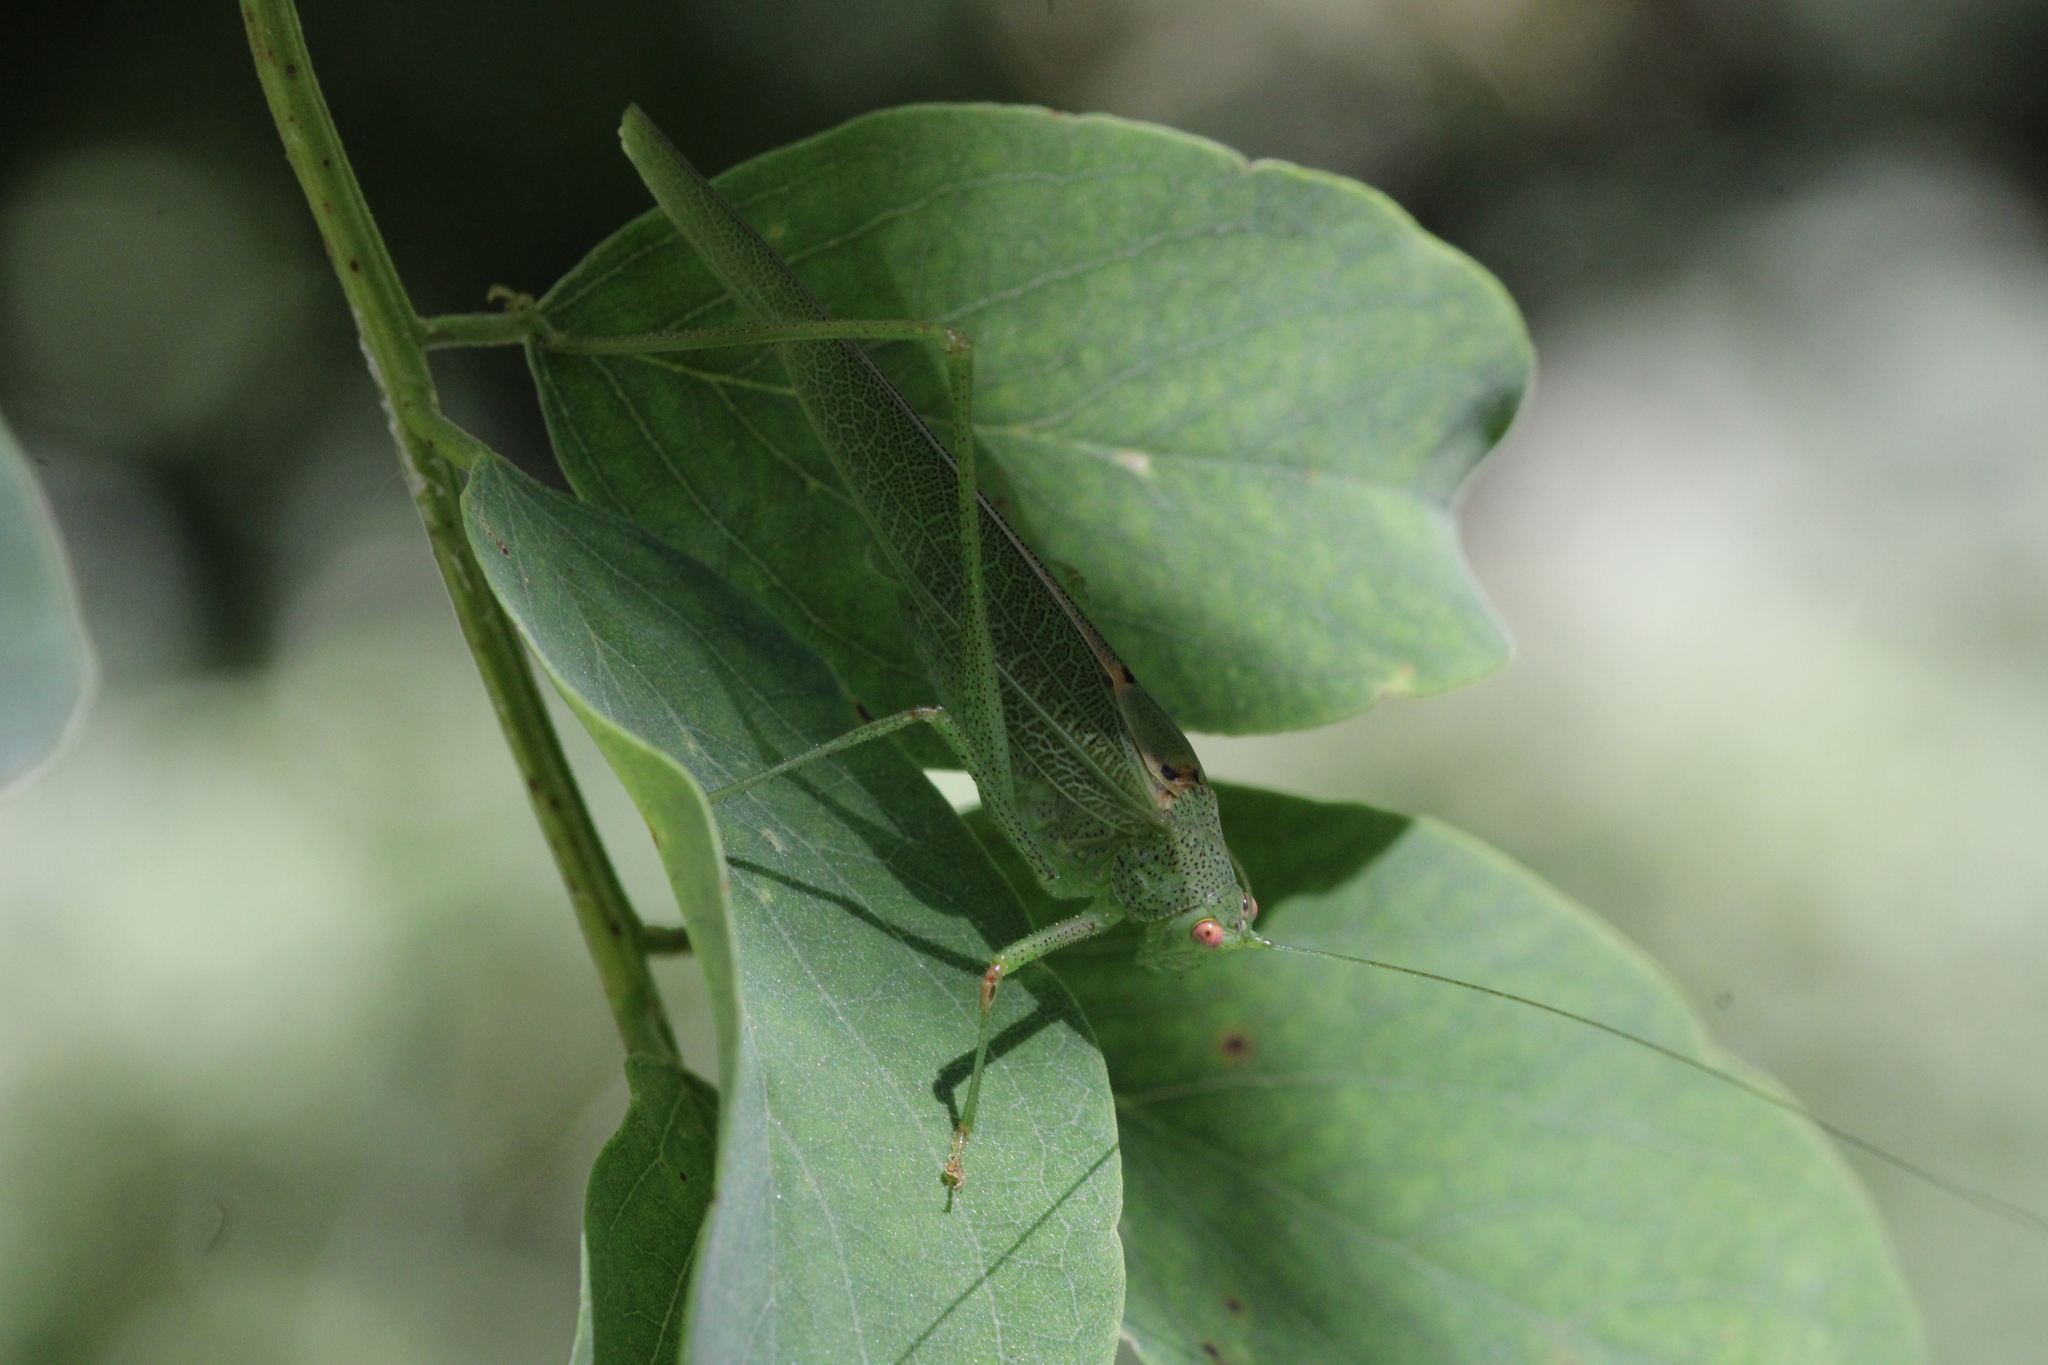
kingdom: Animalia
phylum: Arthropoda
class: Insecta
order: Orthoptera
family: Tettigoniidae
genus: Phaneroptera
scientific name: Phaneroptera nana
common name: Southern sickle bush-cricket
